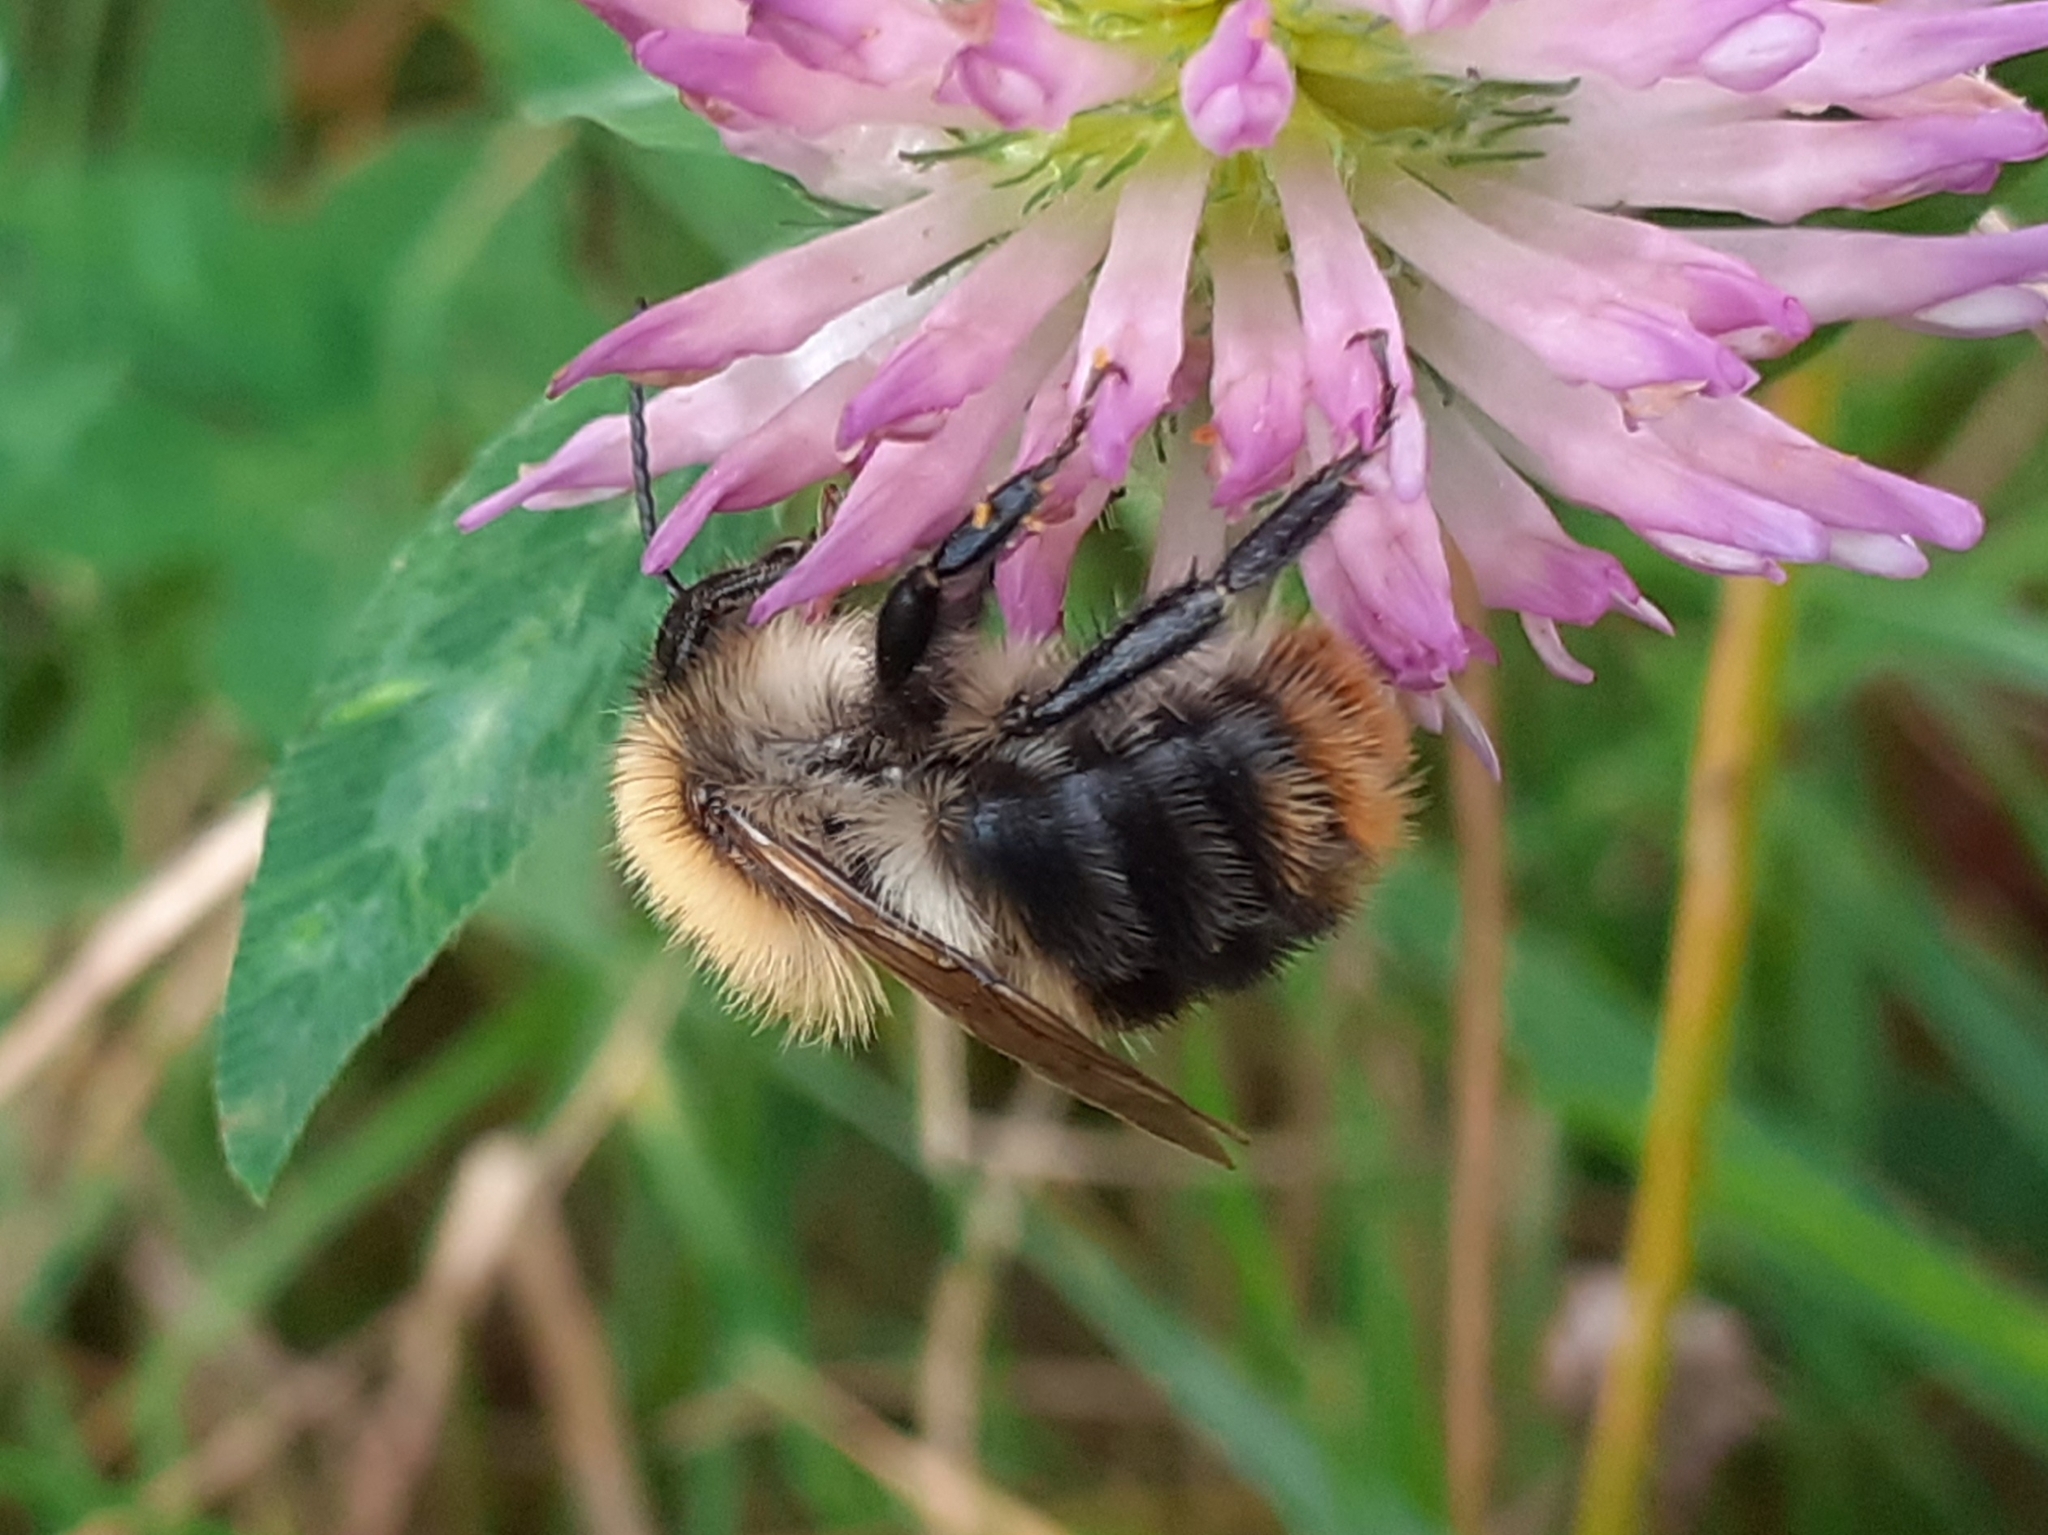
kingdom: Animalia
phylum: Arthropoda
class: Insecta
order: Hymenoptera
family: Apidae
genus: Bombus
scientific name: Bombus pascuorum
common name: Common carder bee
